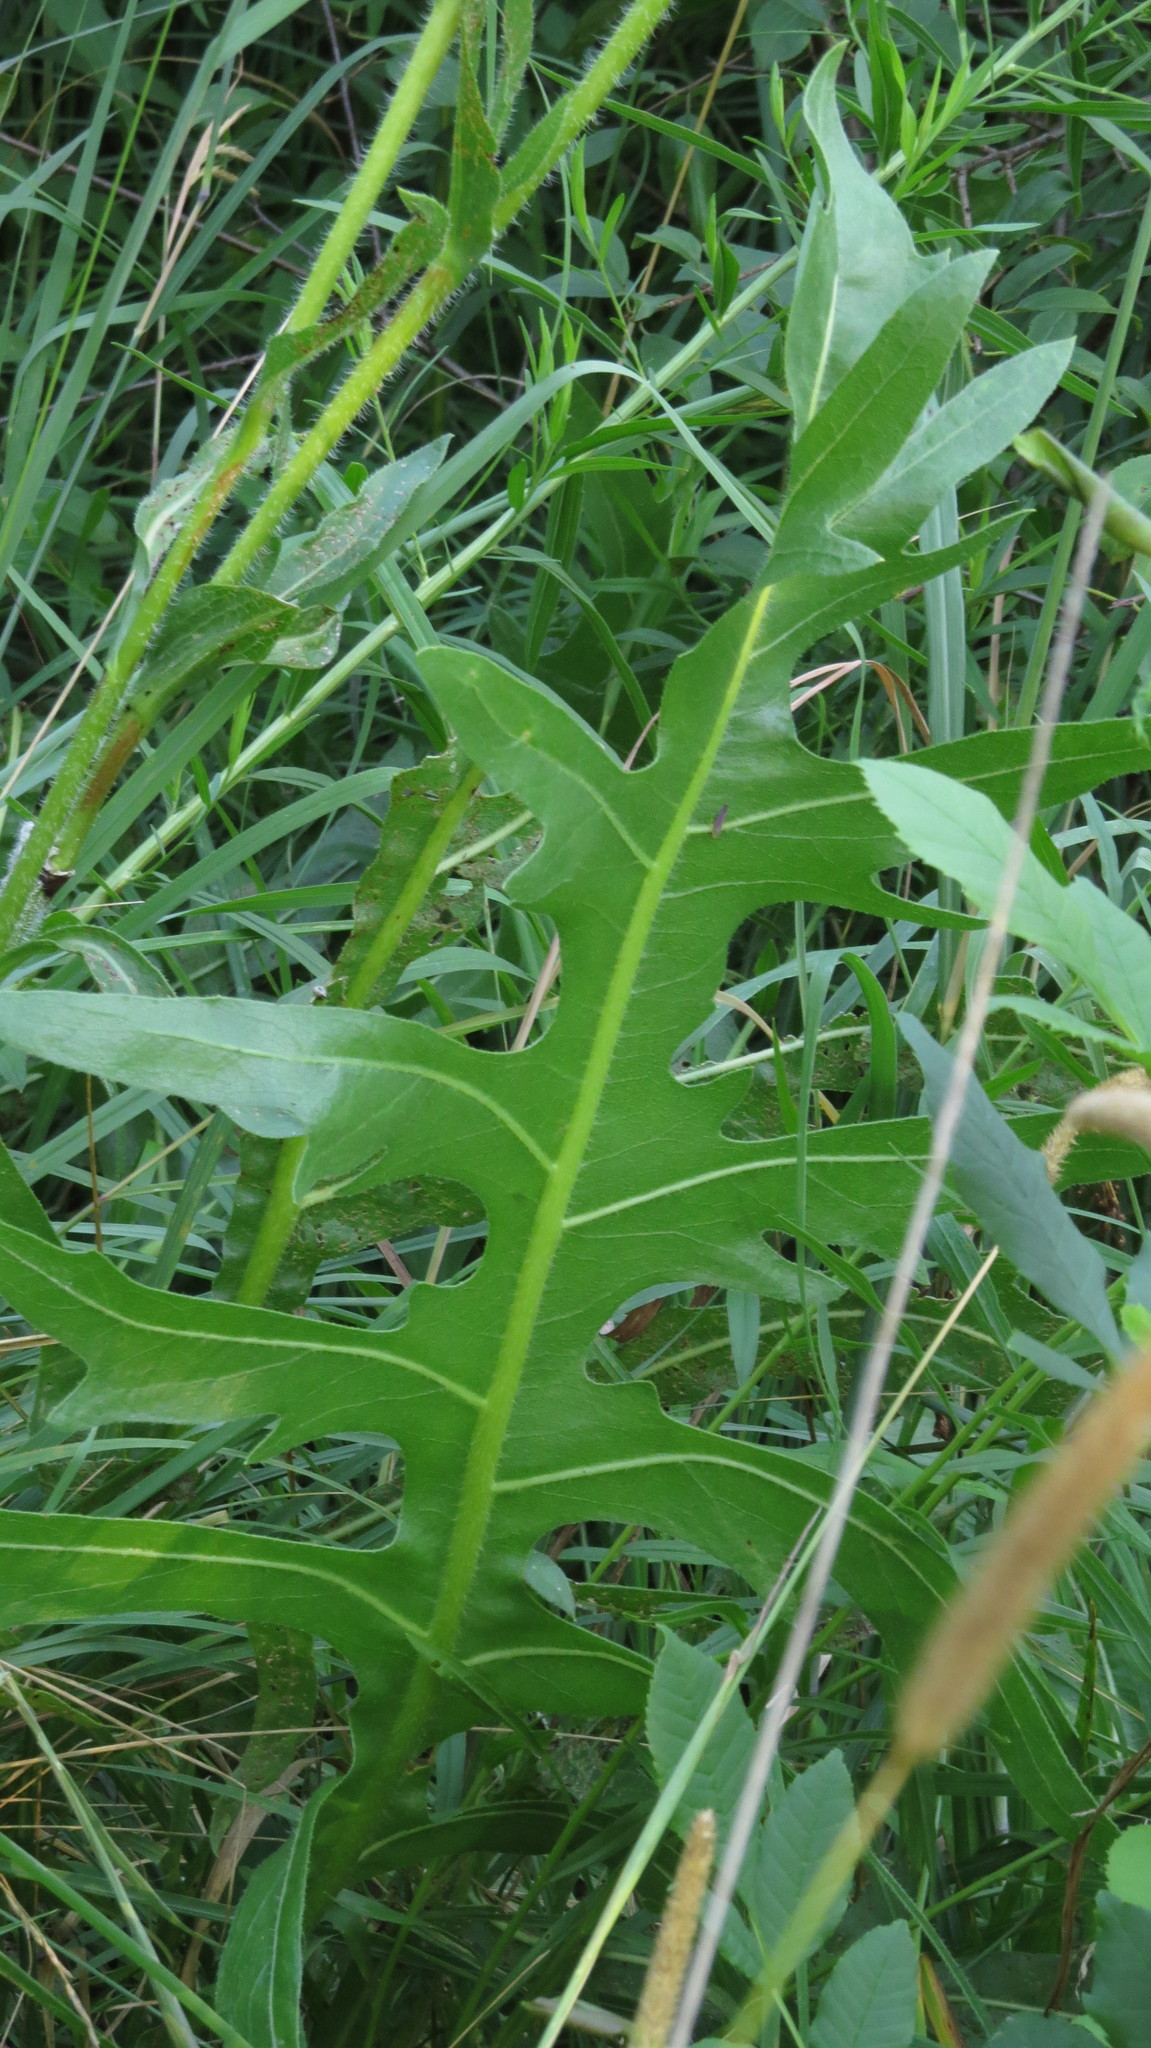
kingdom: Plantae
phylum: Tracheophyta
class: Magnoliopsida
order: Asterales
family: Asteraceae
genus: Silphium
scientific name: Silphium laciniatum
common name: Polarplant
